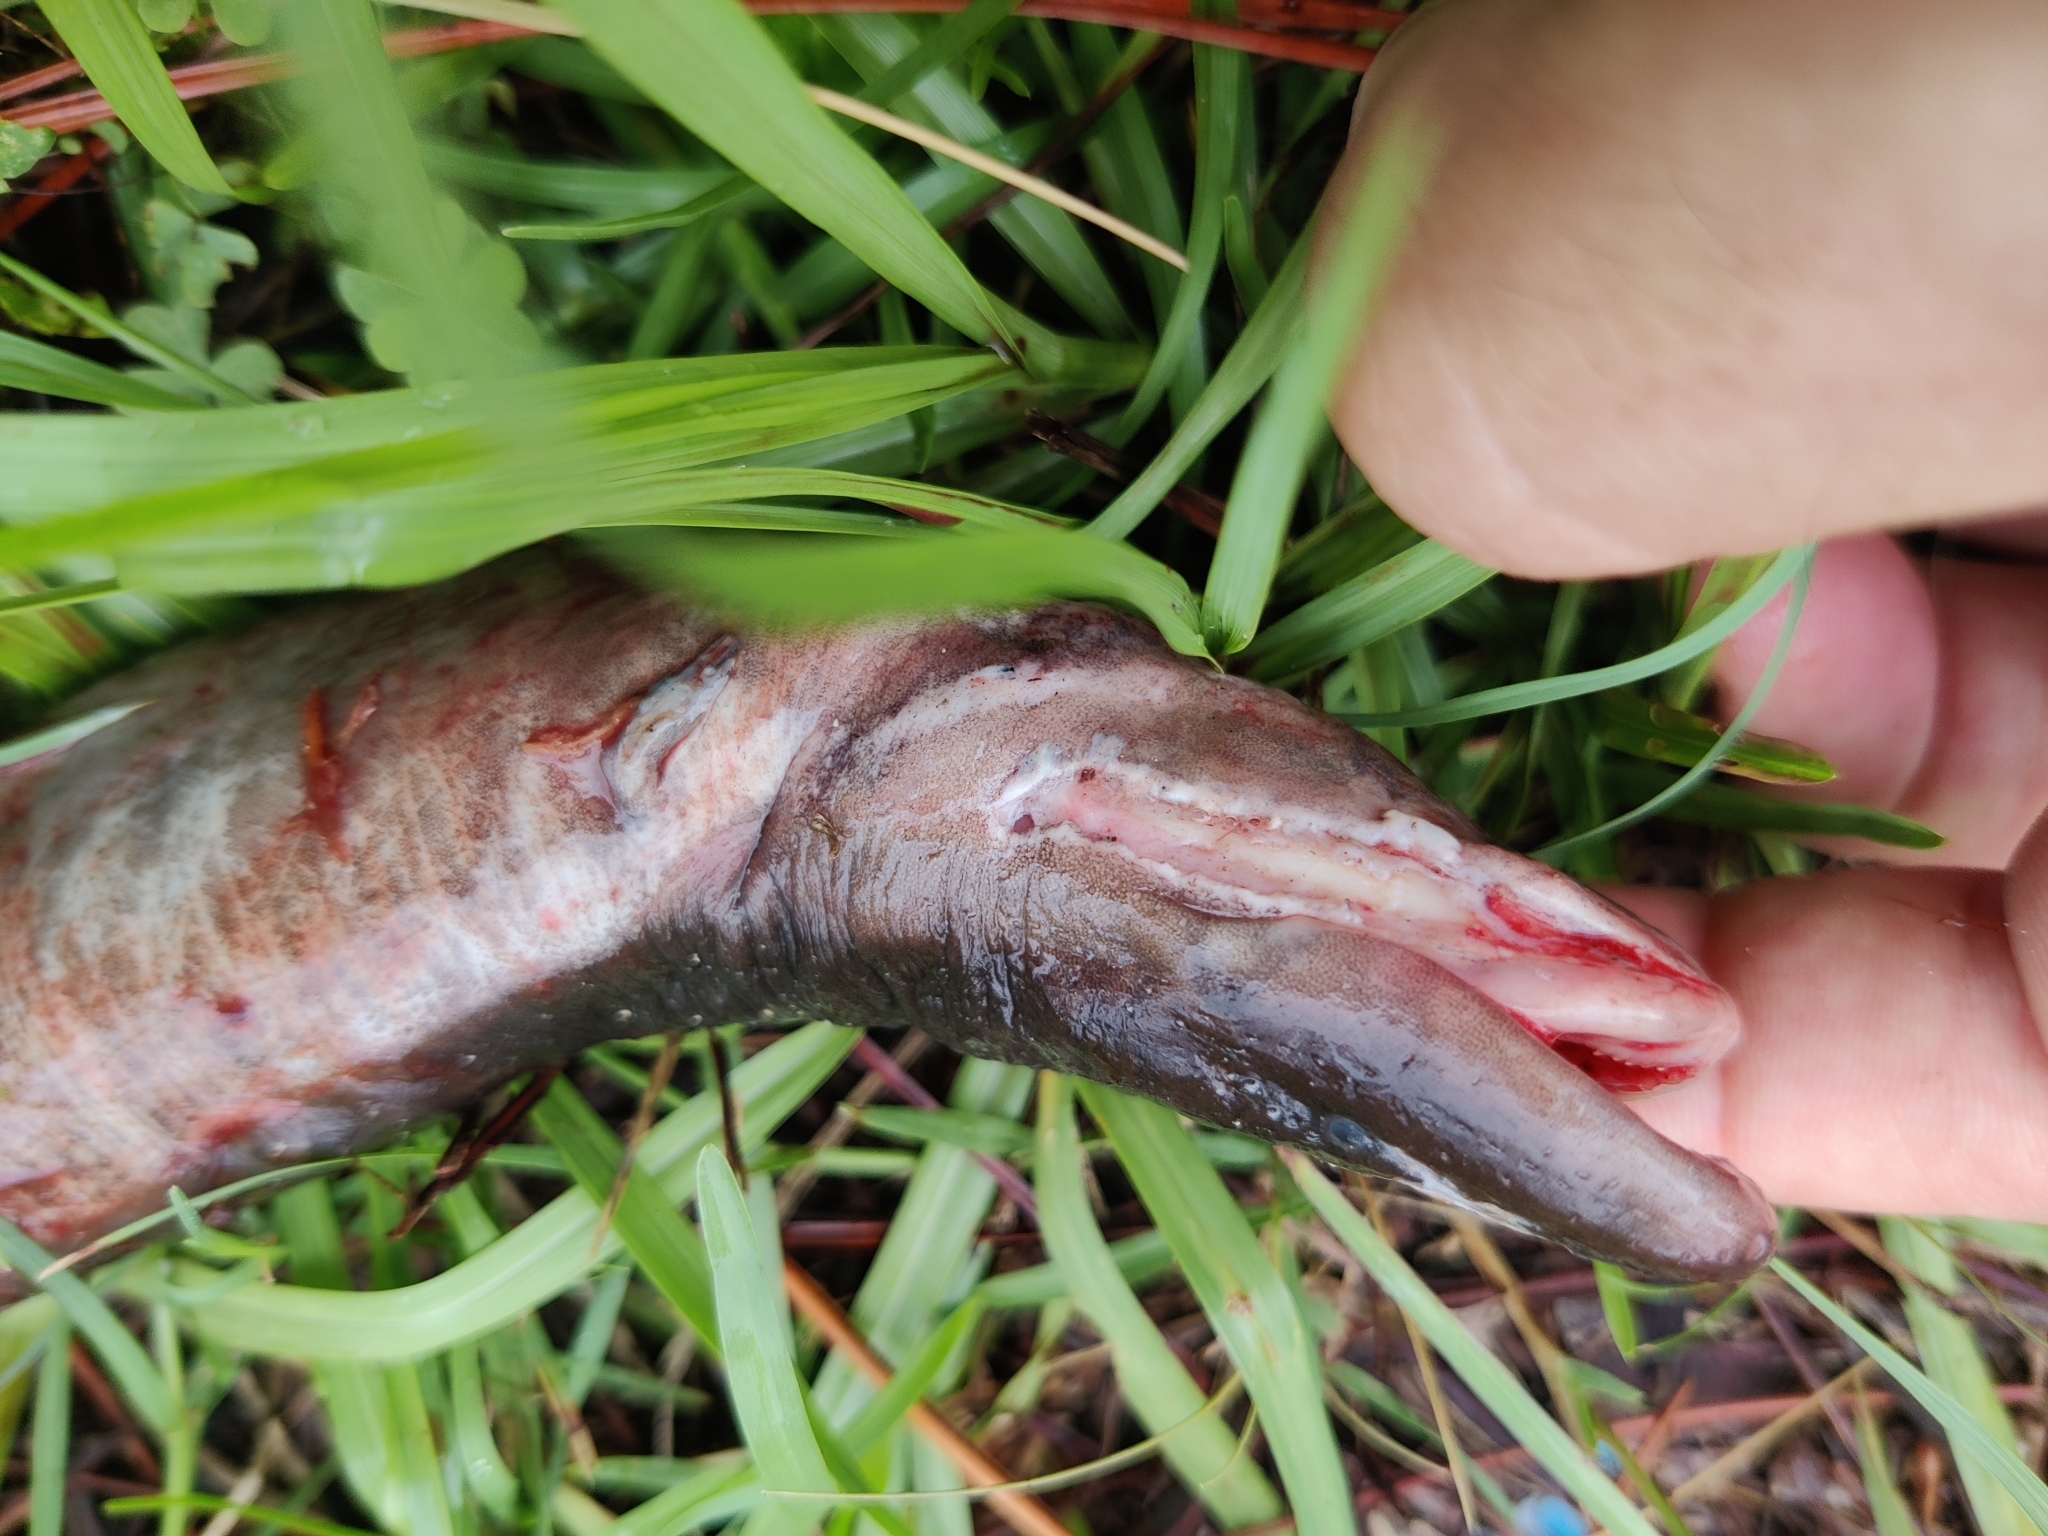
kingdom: Animalia
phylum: Chordata
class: Amphibia
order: Caudata
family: Amphiumidae
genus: Amphiuma
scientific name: Amphiuma means
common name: Two-toed amphiuma
